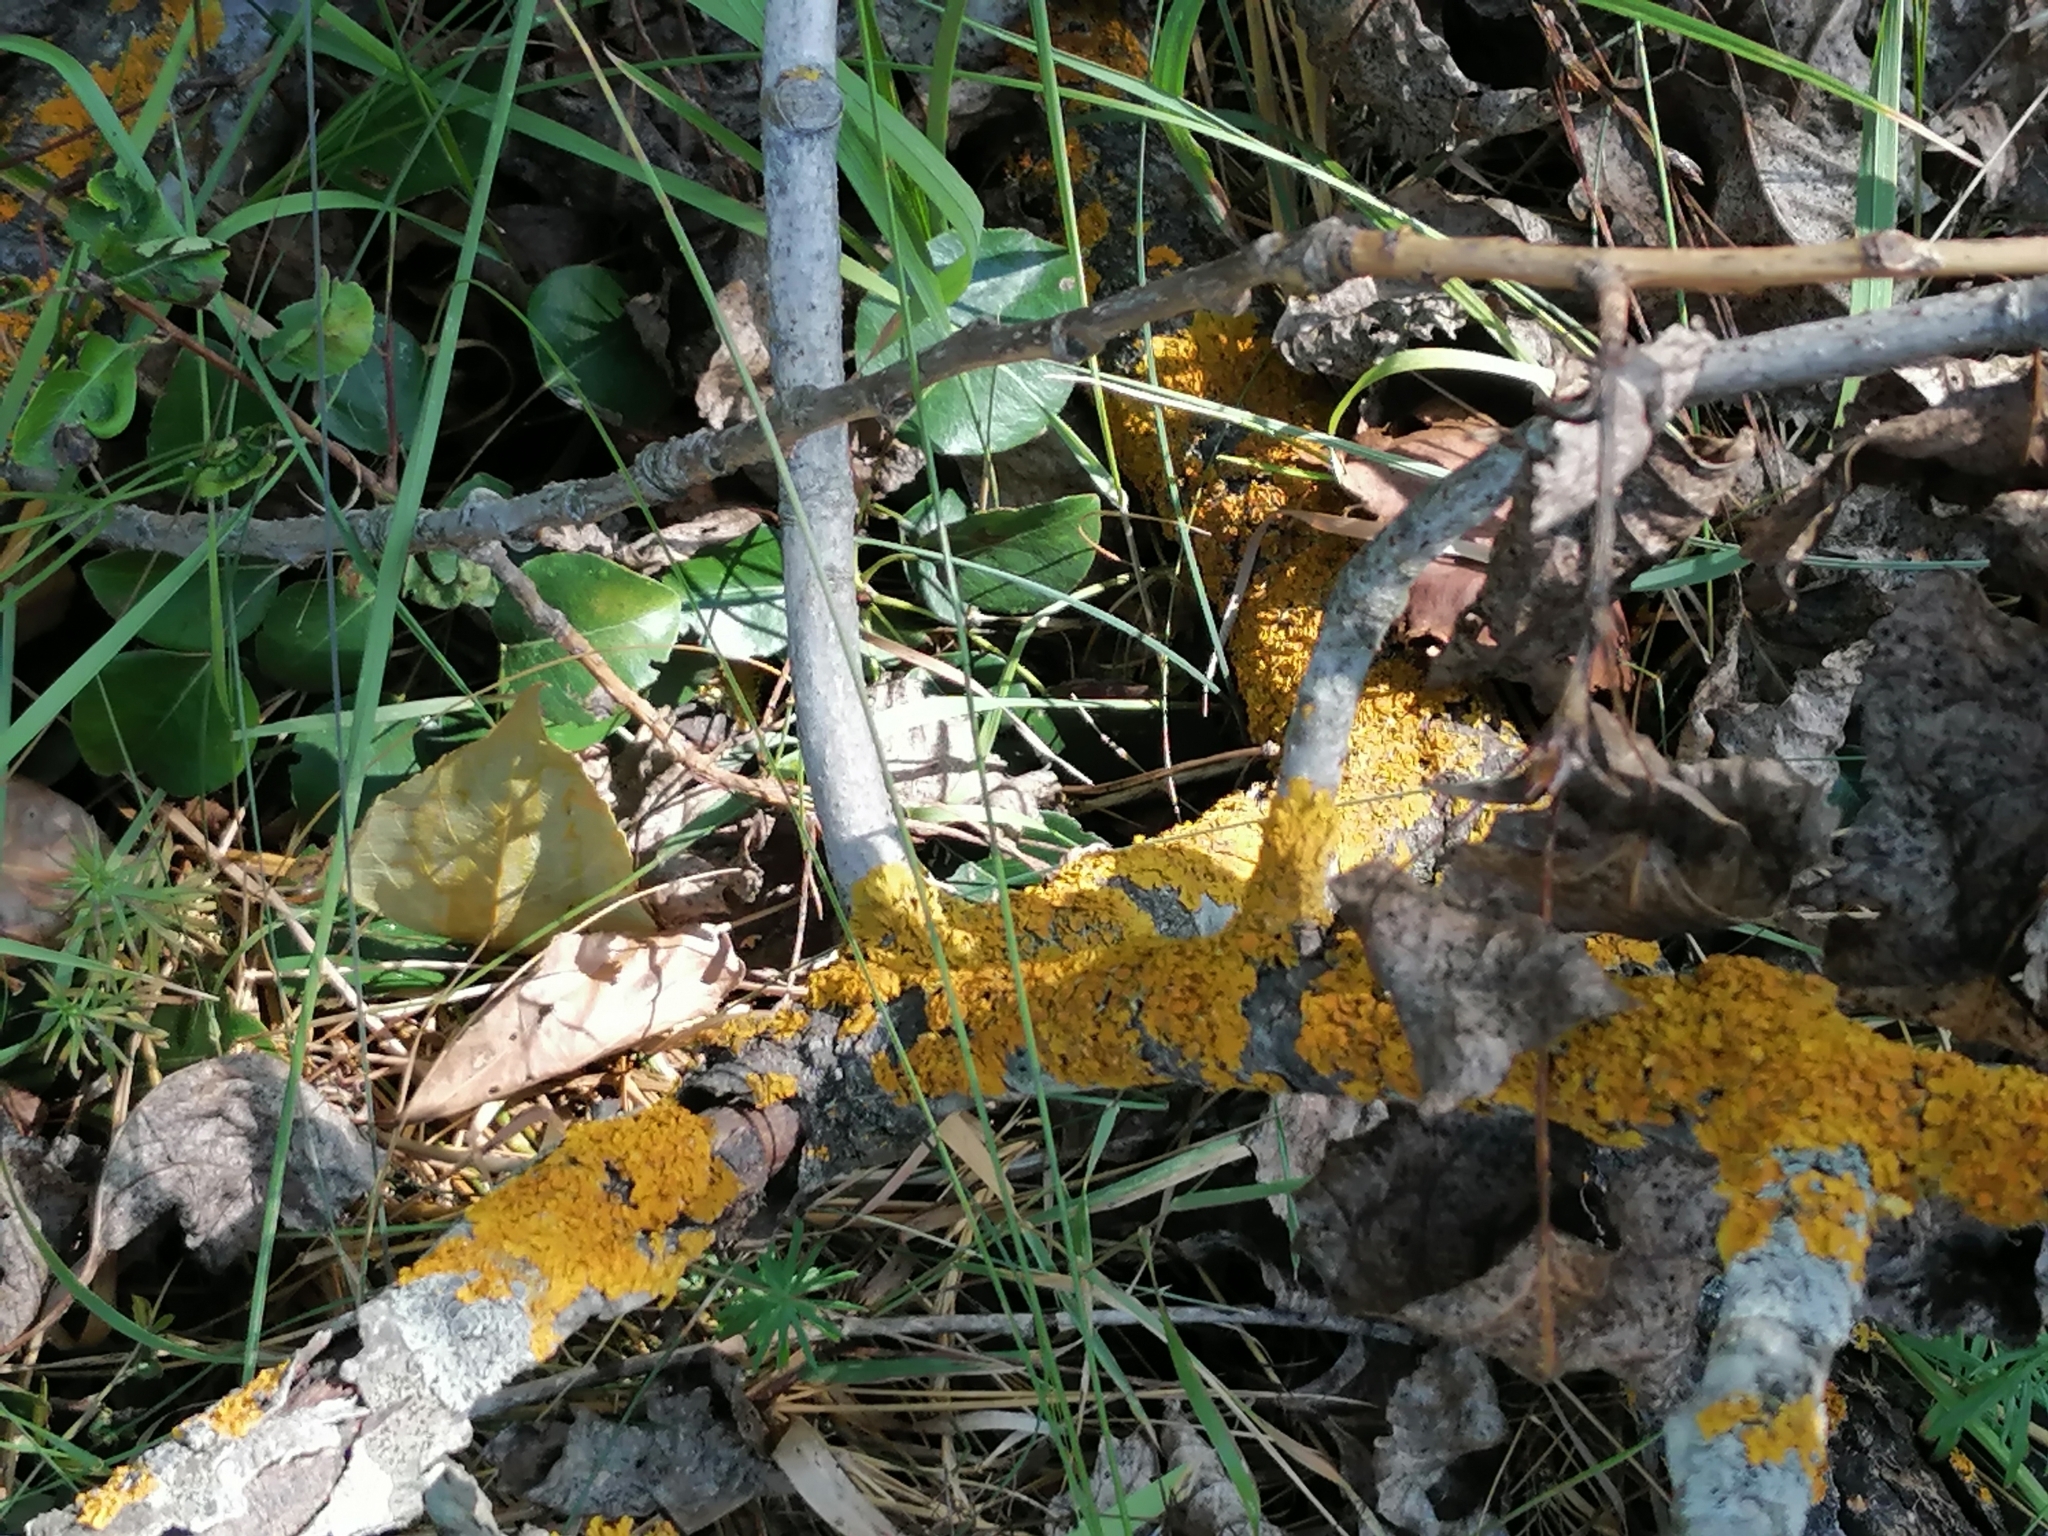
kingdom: Fungi
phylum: Ascomycota
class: Lecanoromycetes
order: Teloschistales
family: Teloschistaceae
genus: Xanthoria
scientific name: Xanthoria parietina
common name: Common orange lichen
